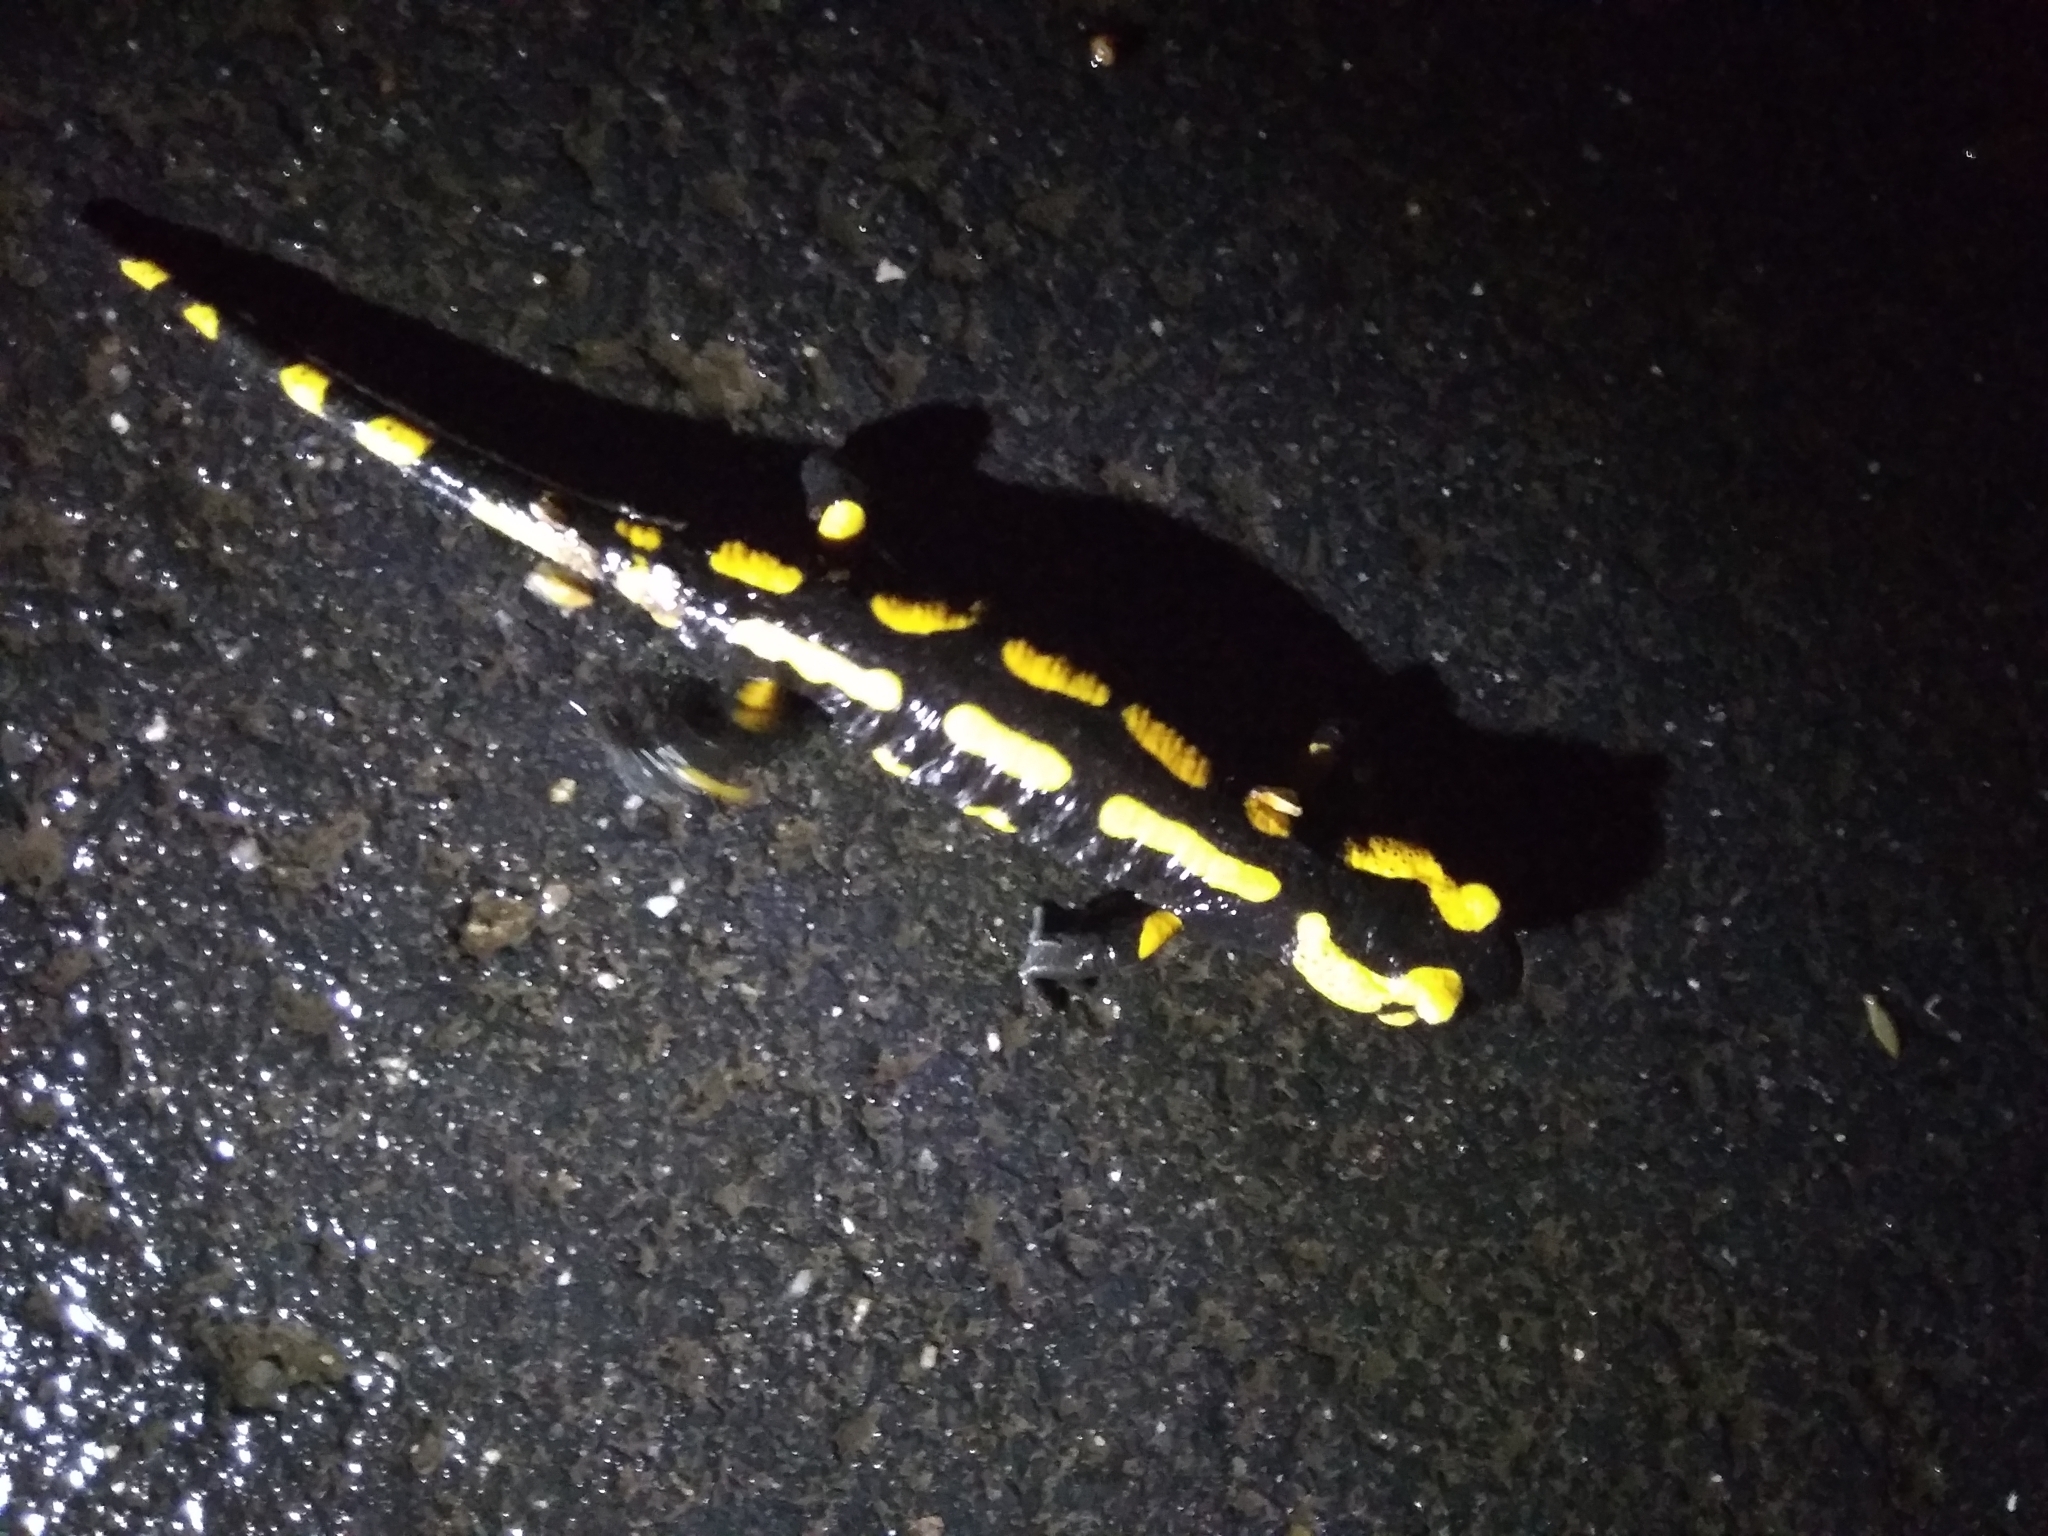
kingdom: Animalia
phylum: Chordata
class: Amphibia
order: Caudata
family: Salamandridae
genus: Salamandra
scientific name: Salamandra salamandra
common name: Fire salamander
